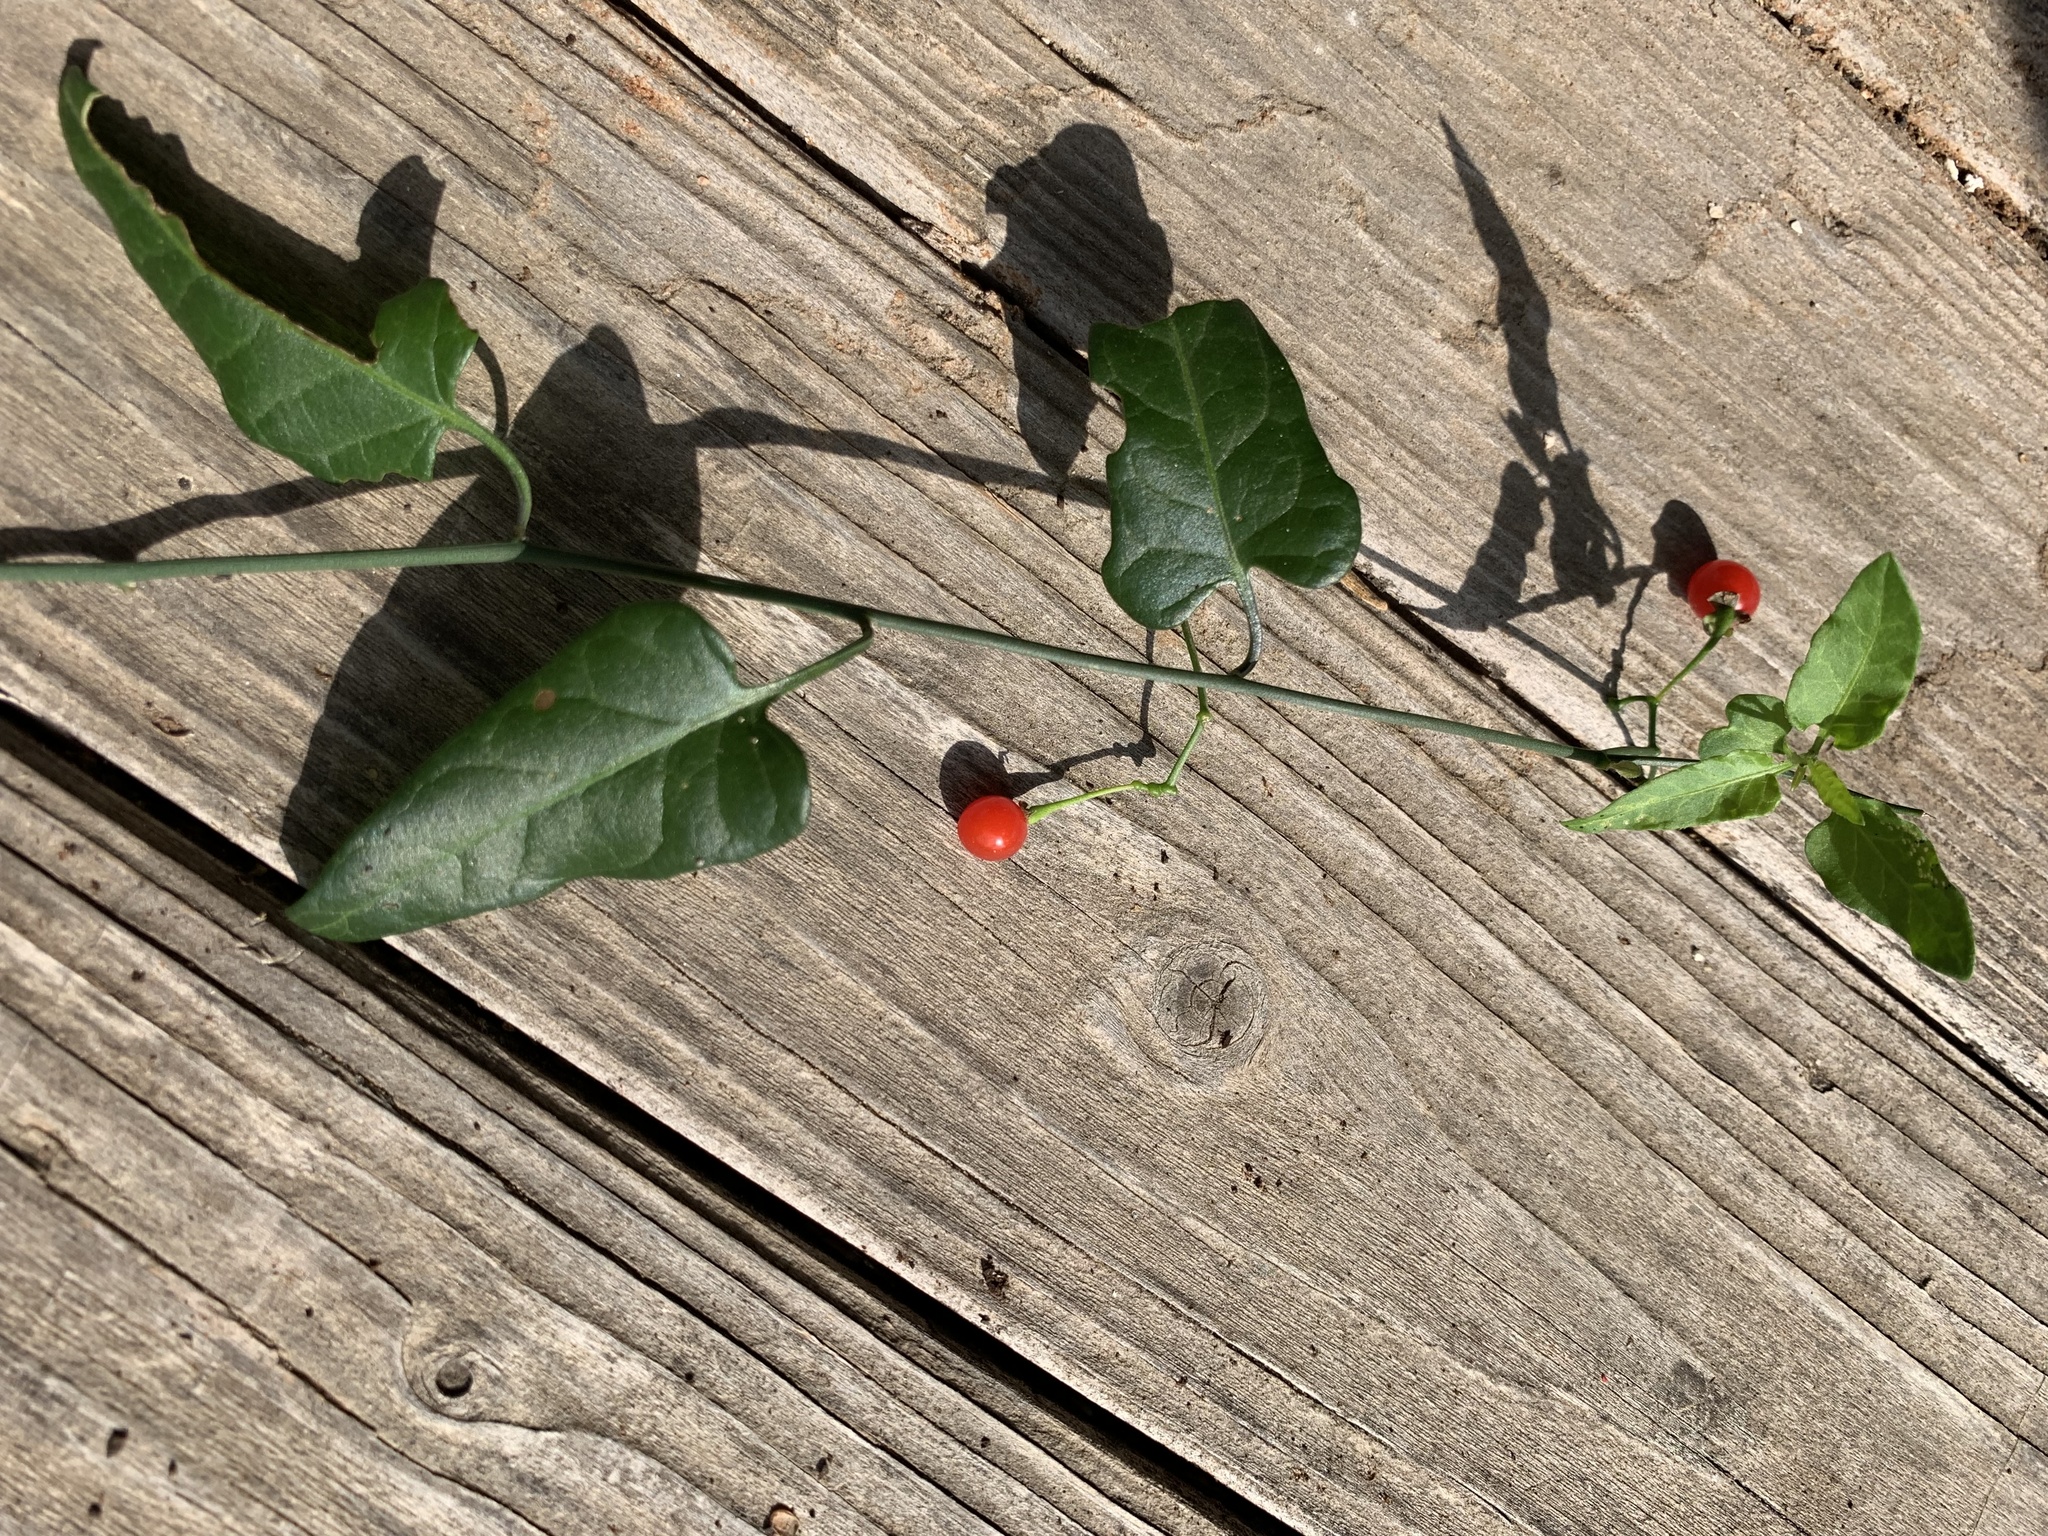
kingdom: Plantae
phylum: Tracheophyta
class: Magnoliopsida
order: Solanales
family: Solanaceae
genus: Solanum
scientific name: Solanum triquetrum
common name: Texas nightshade
